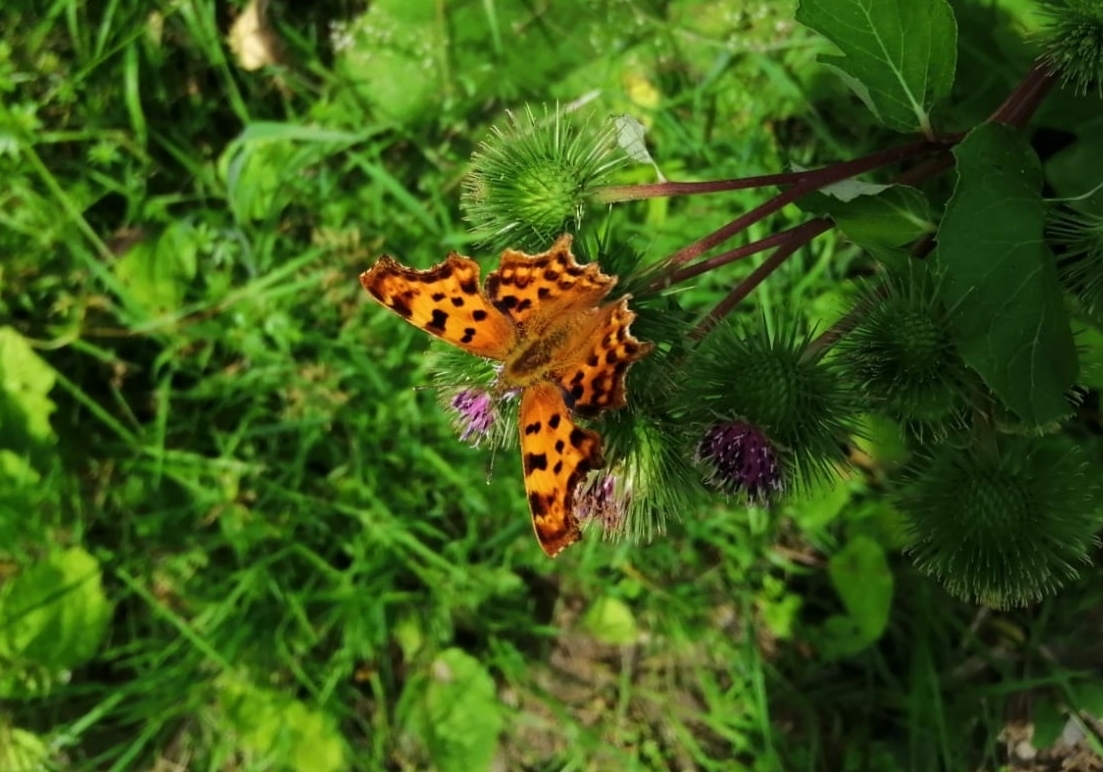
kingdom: Animalia
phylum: Arthropoda
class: Insecta
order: Lepidoptera
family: Nymphalidae
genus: Polygonia
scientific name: Polygonia c-album
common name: Comma
